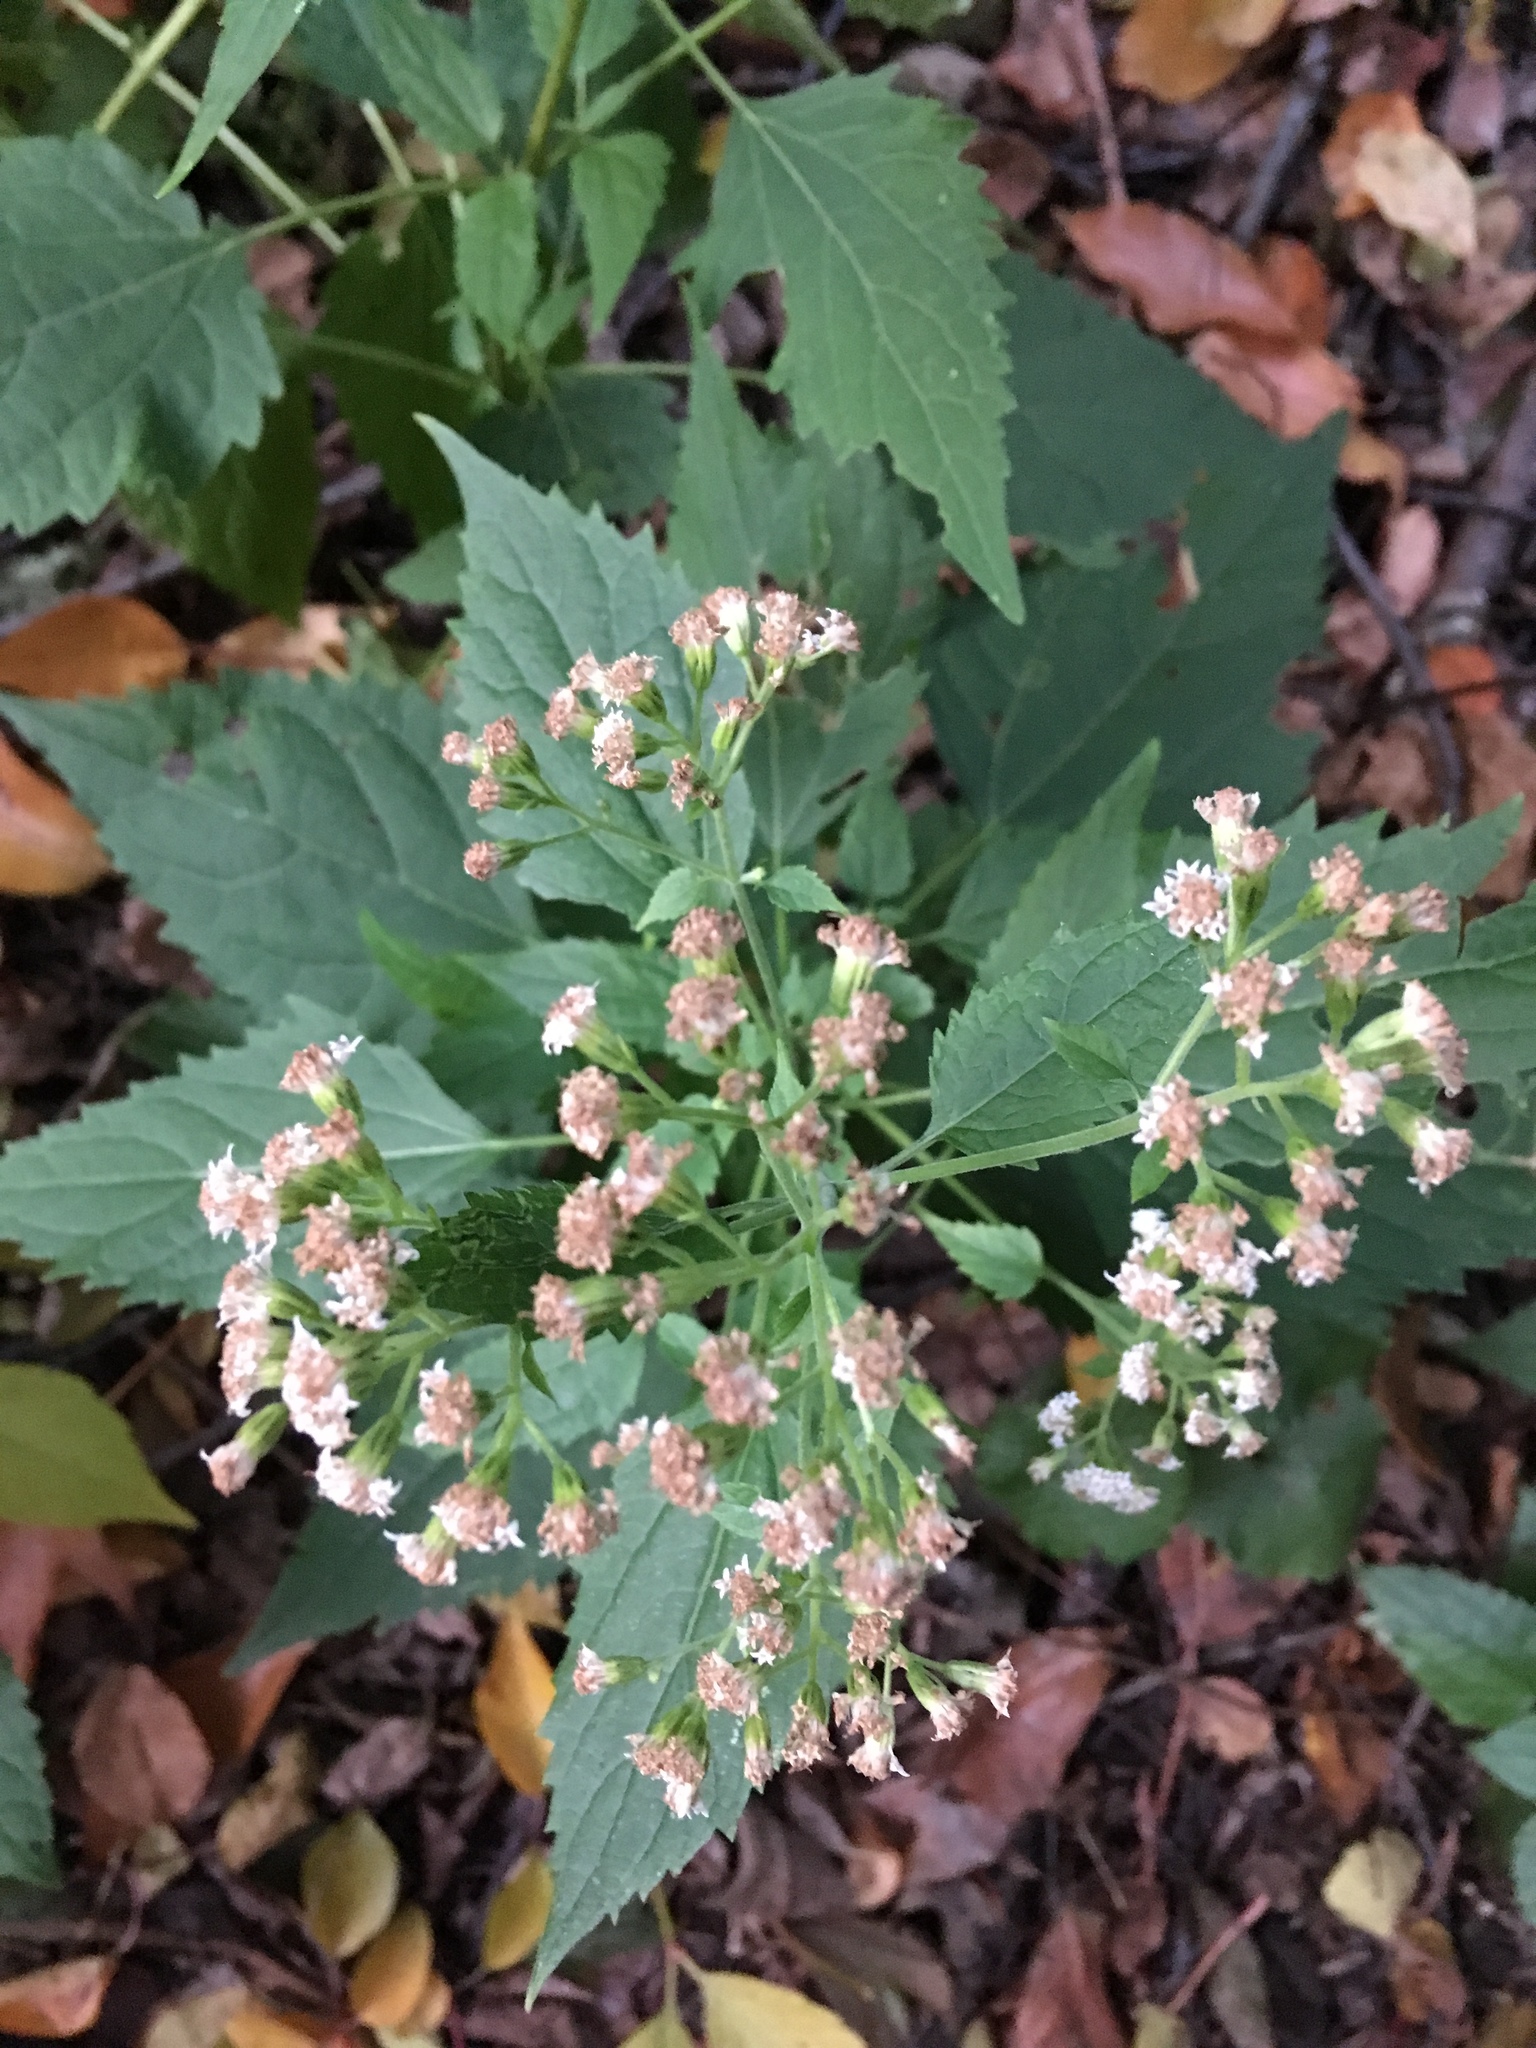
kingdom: Plantae
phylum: Tracheophyta
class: Magnoliopsida
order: Asterales
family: Asteraceae
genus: Ageratina
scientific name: Ageratina altissima
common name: White snakeroot
